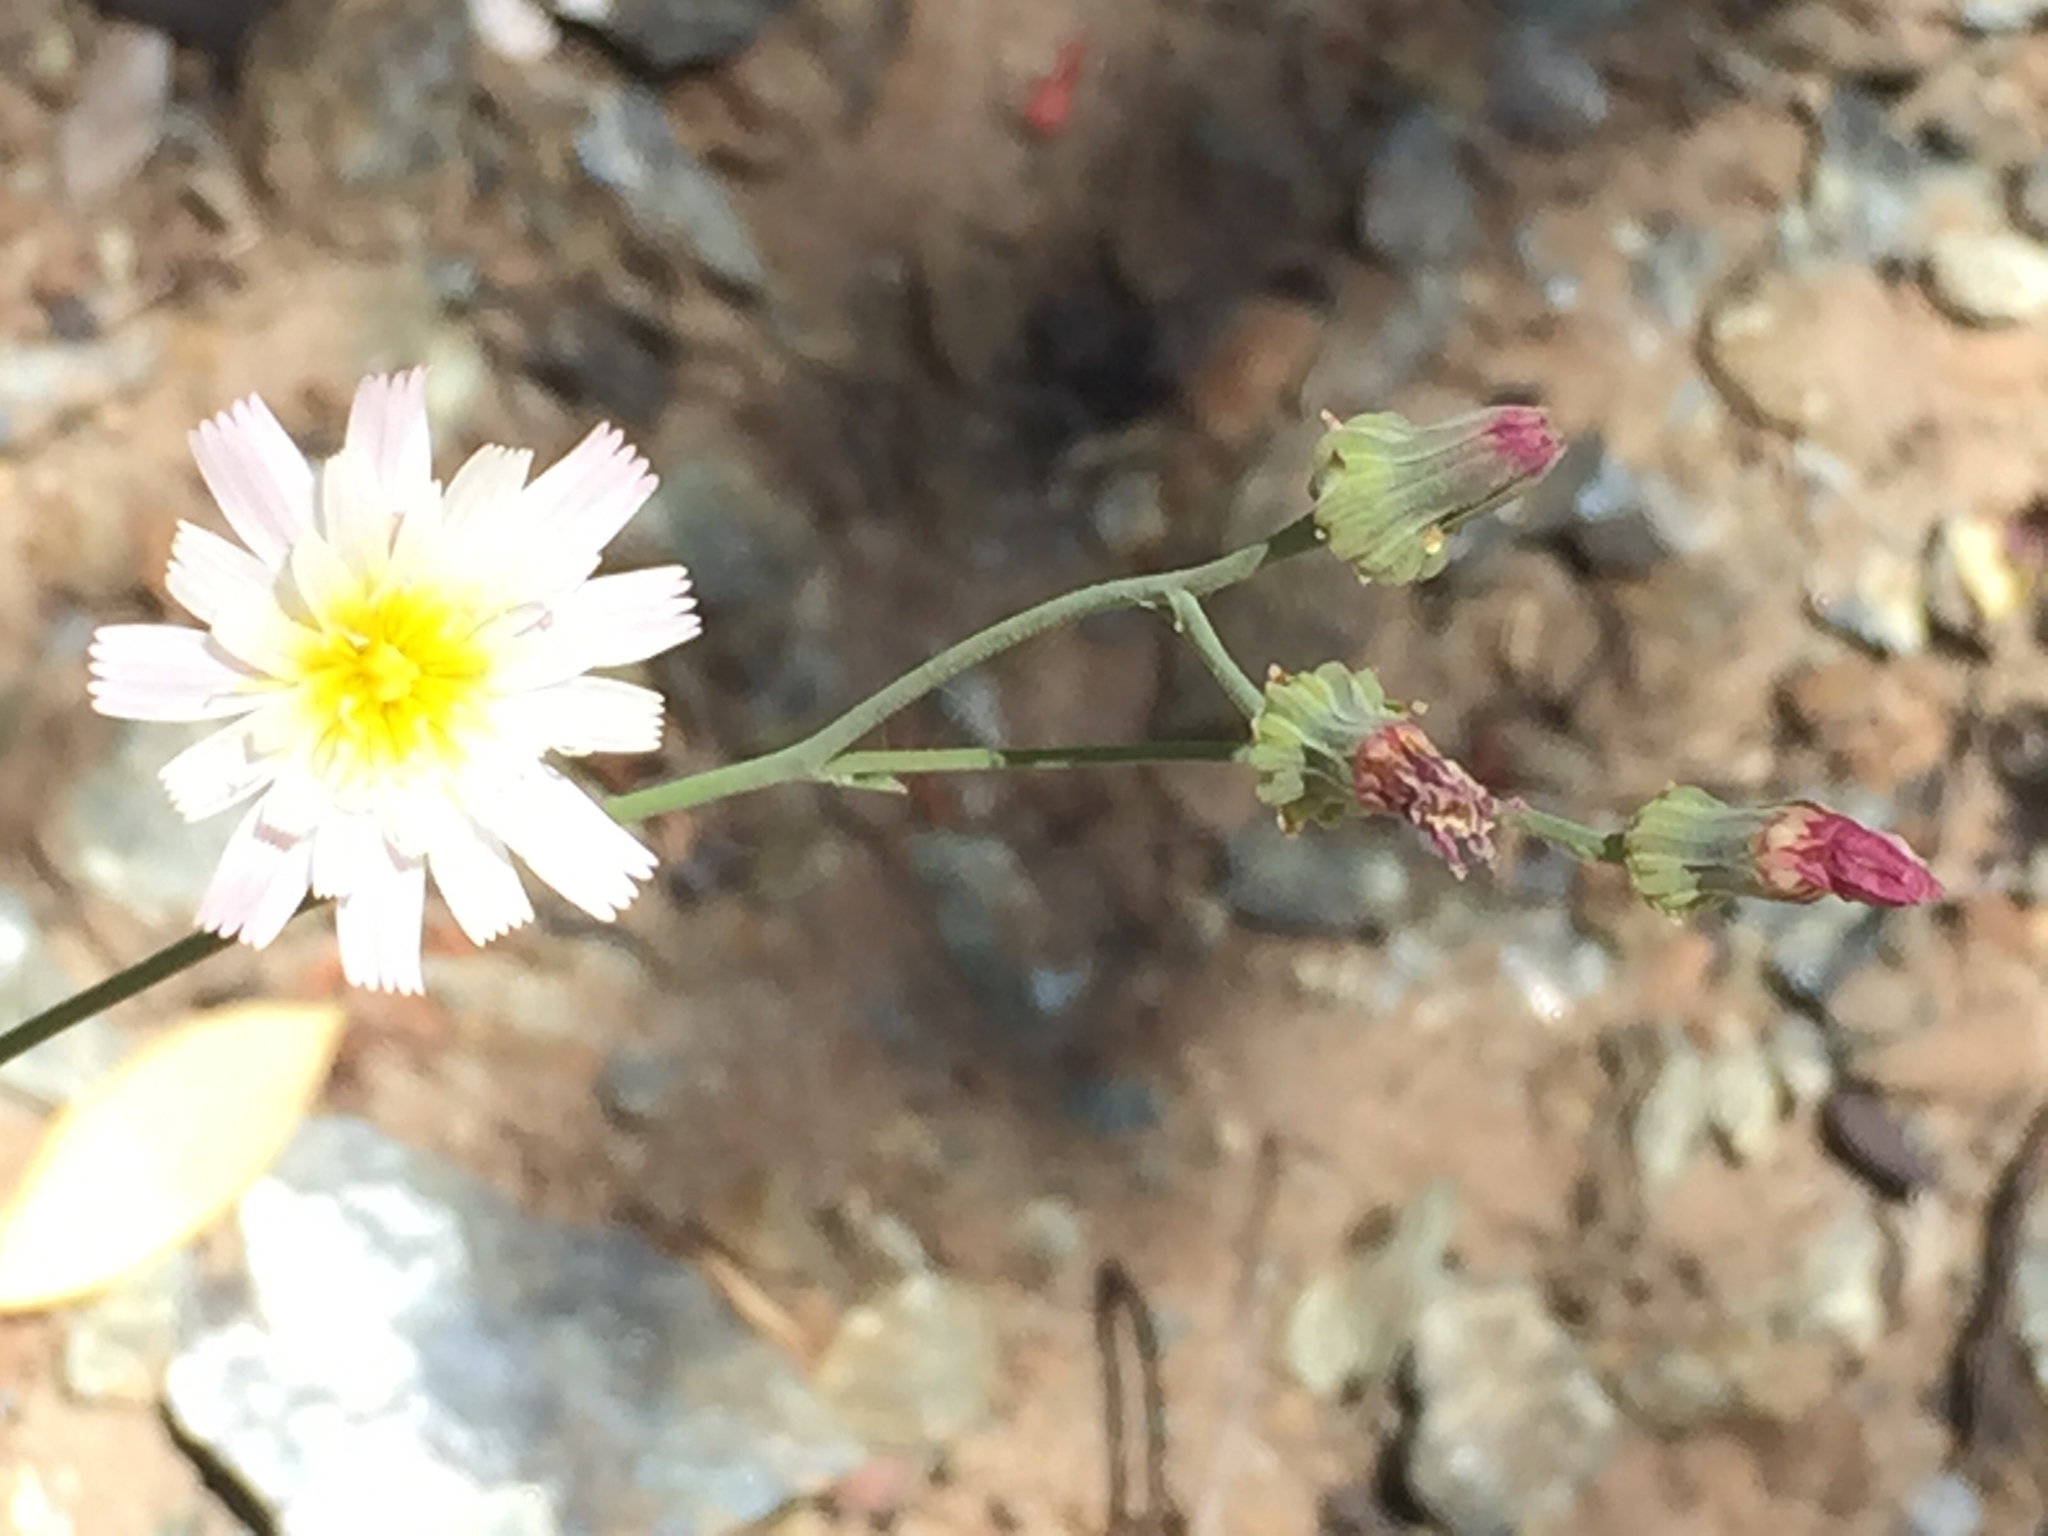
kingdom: Plantae
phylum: Tracheophyta
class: Magnoliopsida
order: Asterales
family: Asteraceae
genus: Malacothrix
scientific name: Malacothrix floccifera
